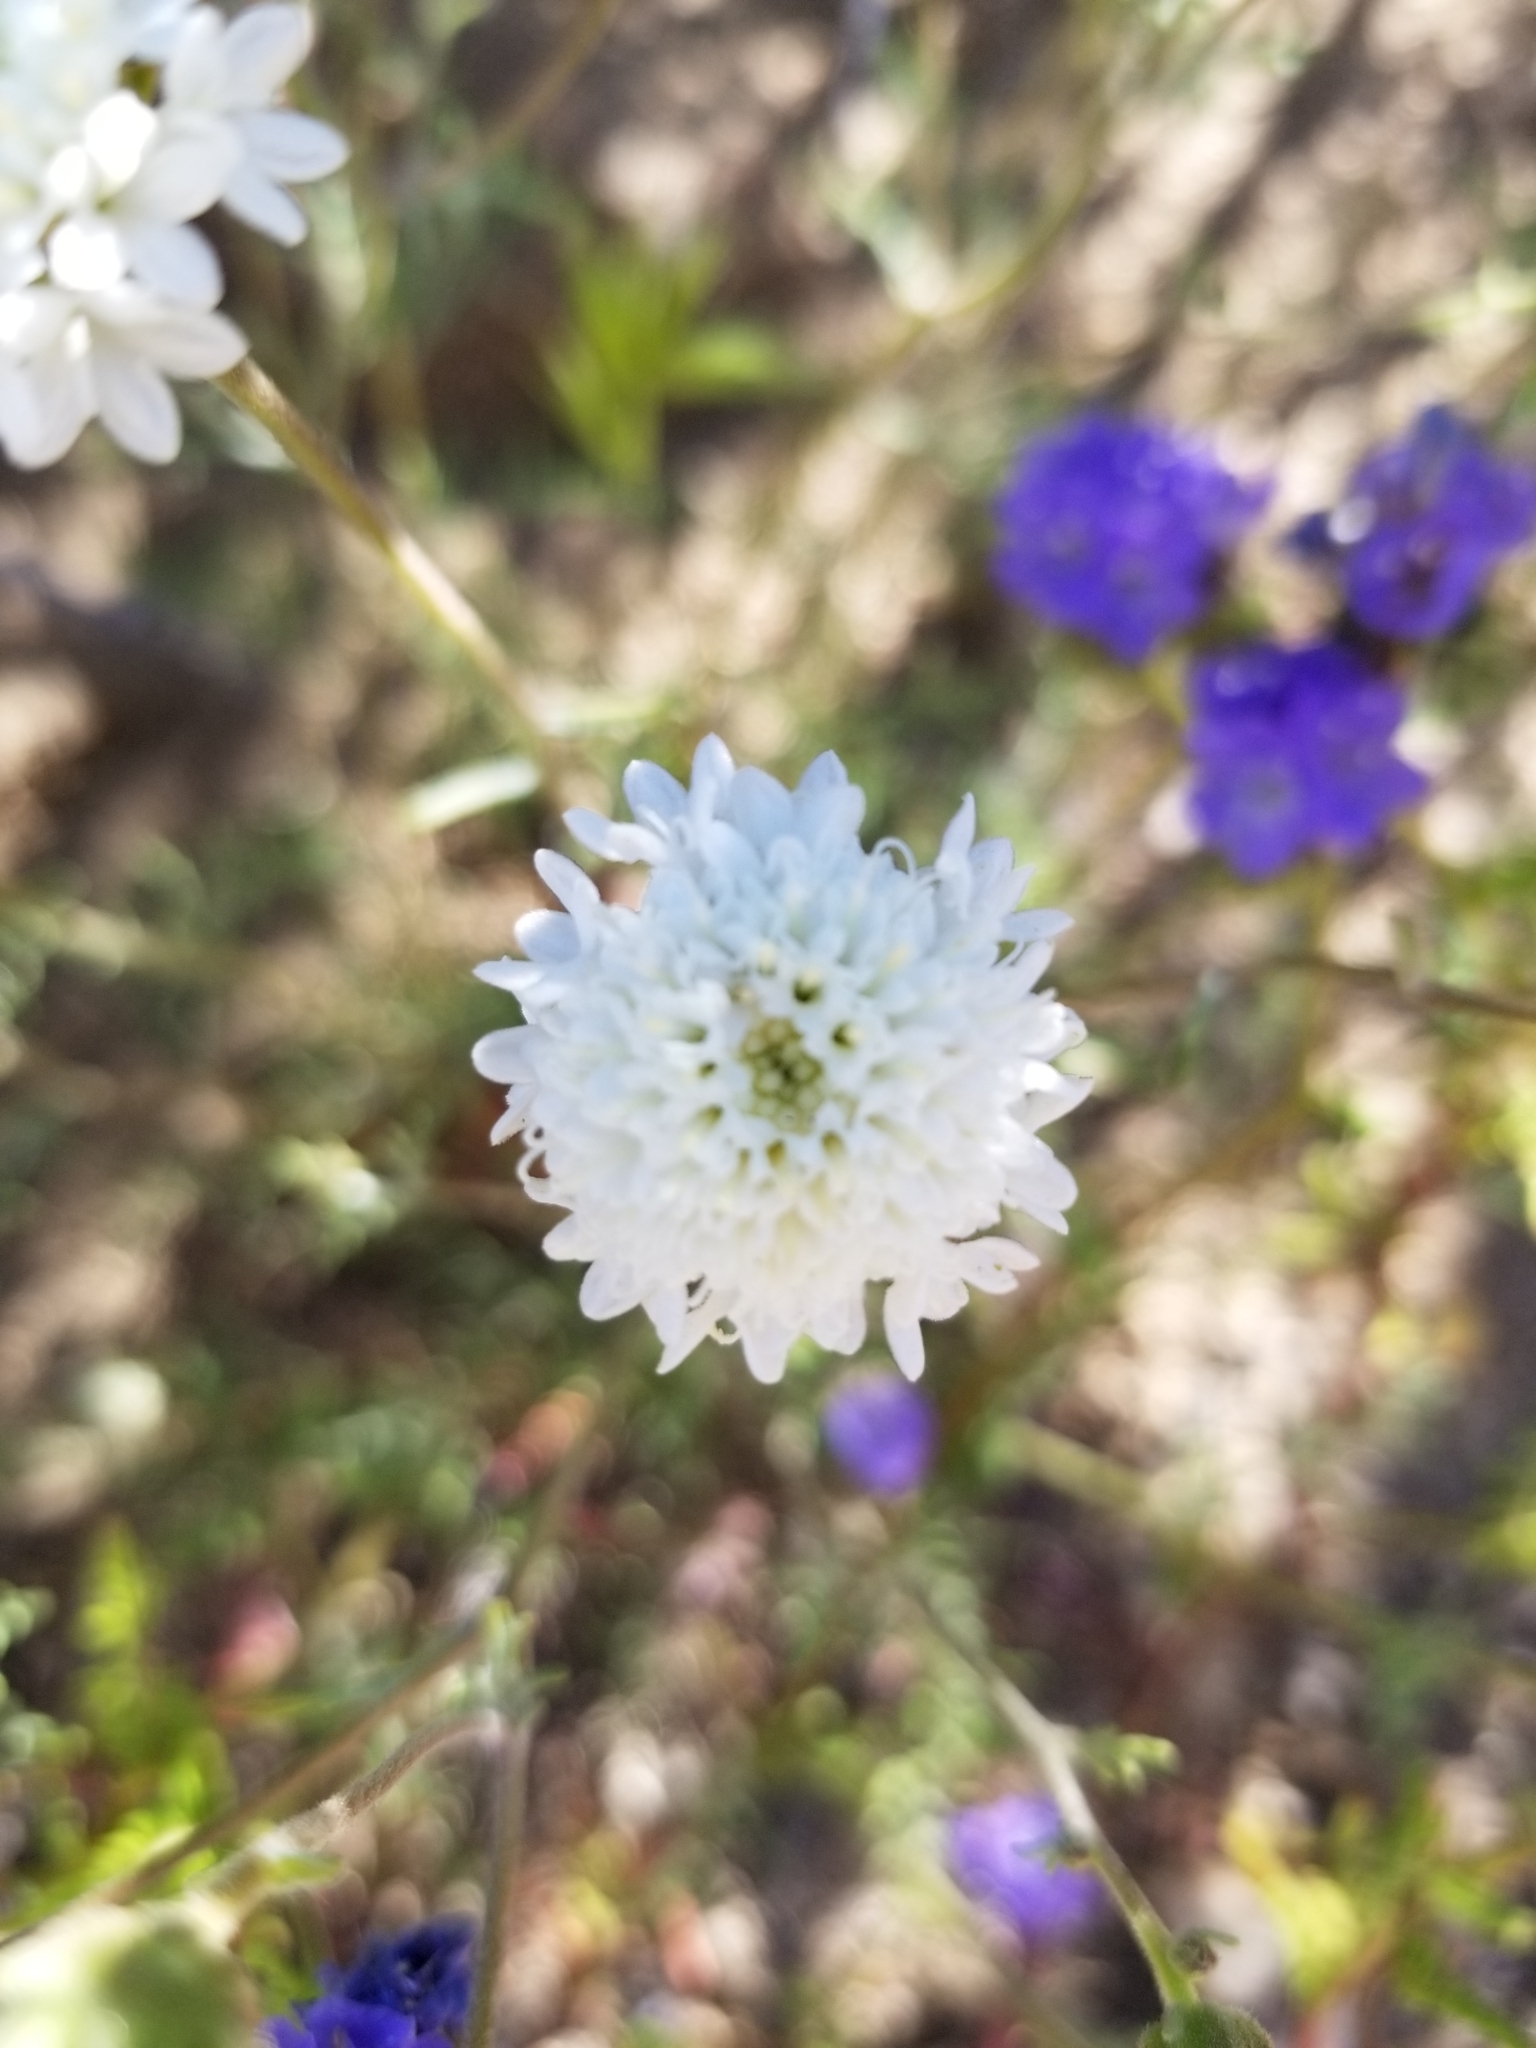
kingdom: Plantae
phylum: Tracheophyta
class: Magnoliopsida
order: Asterales
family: Asteraceae
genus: Chaenactis
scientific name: Chaenactis fremontii
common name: Fremont pincushion
